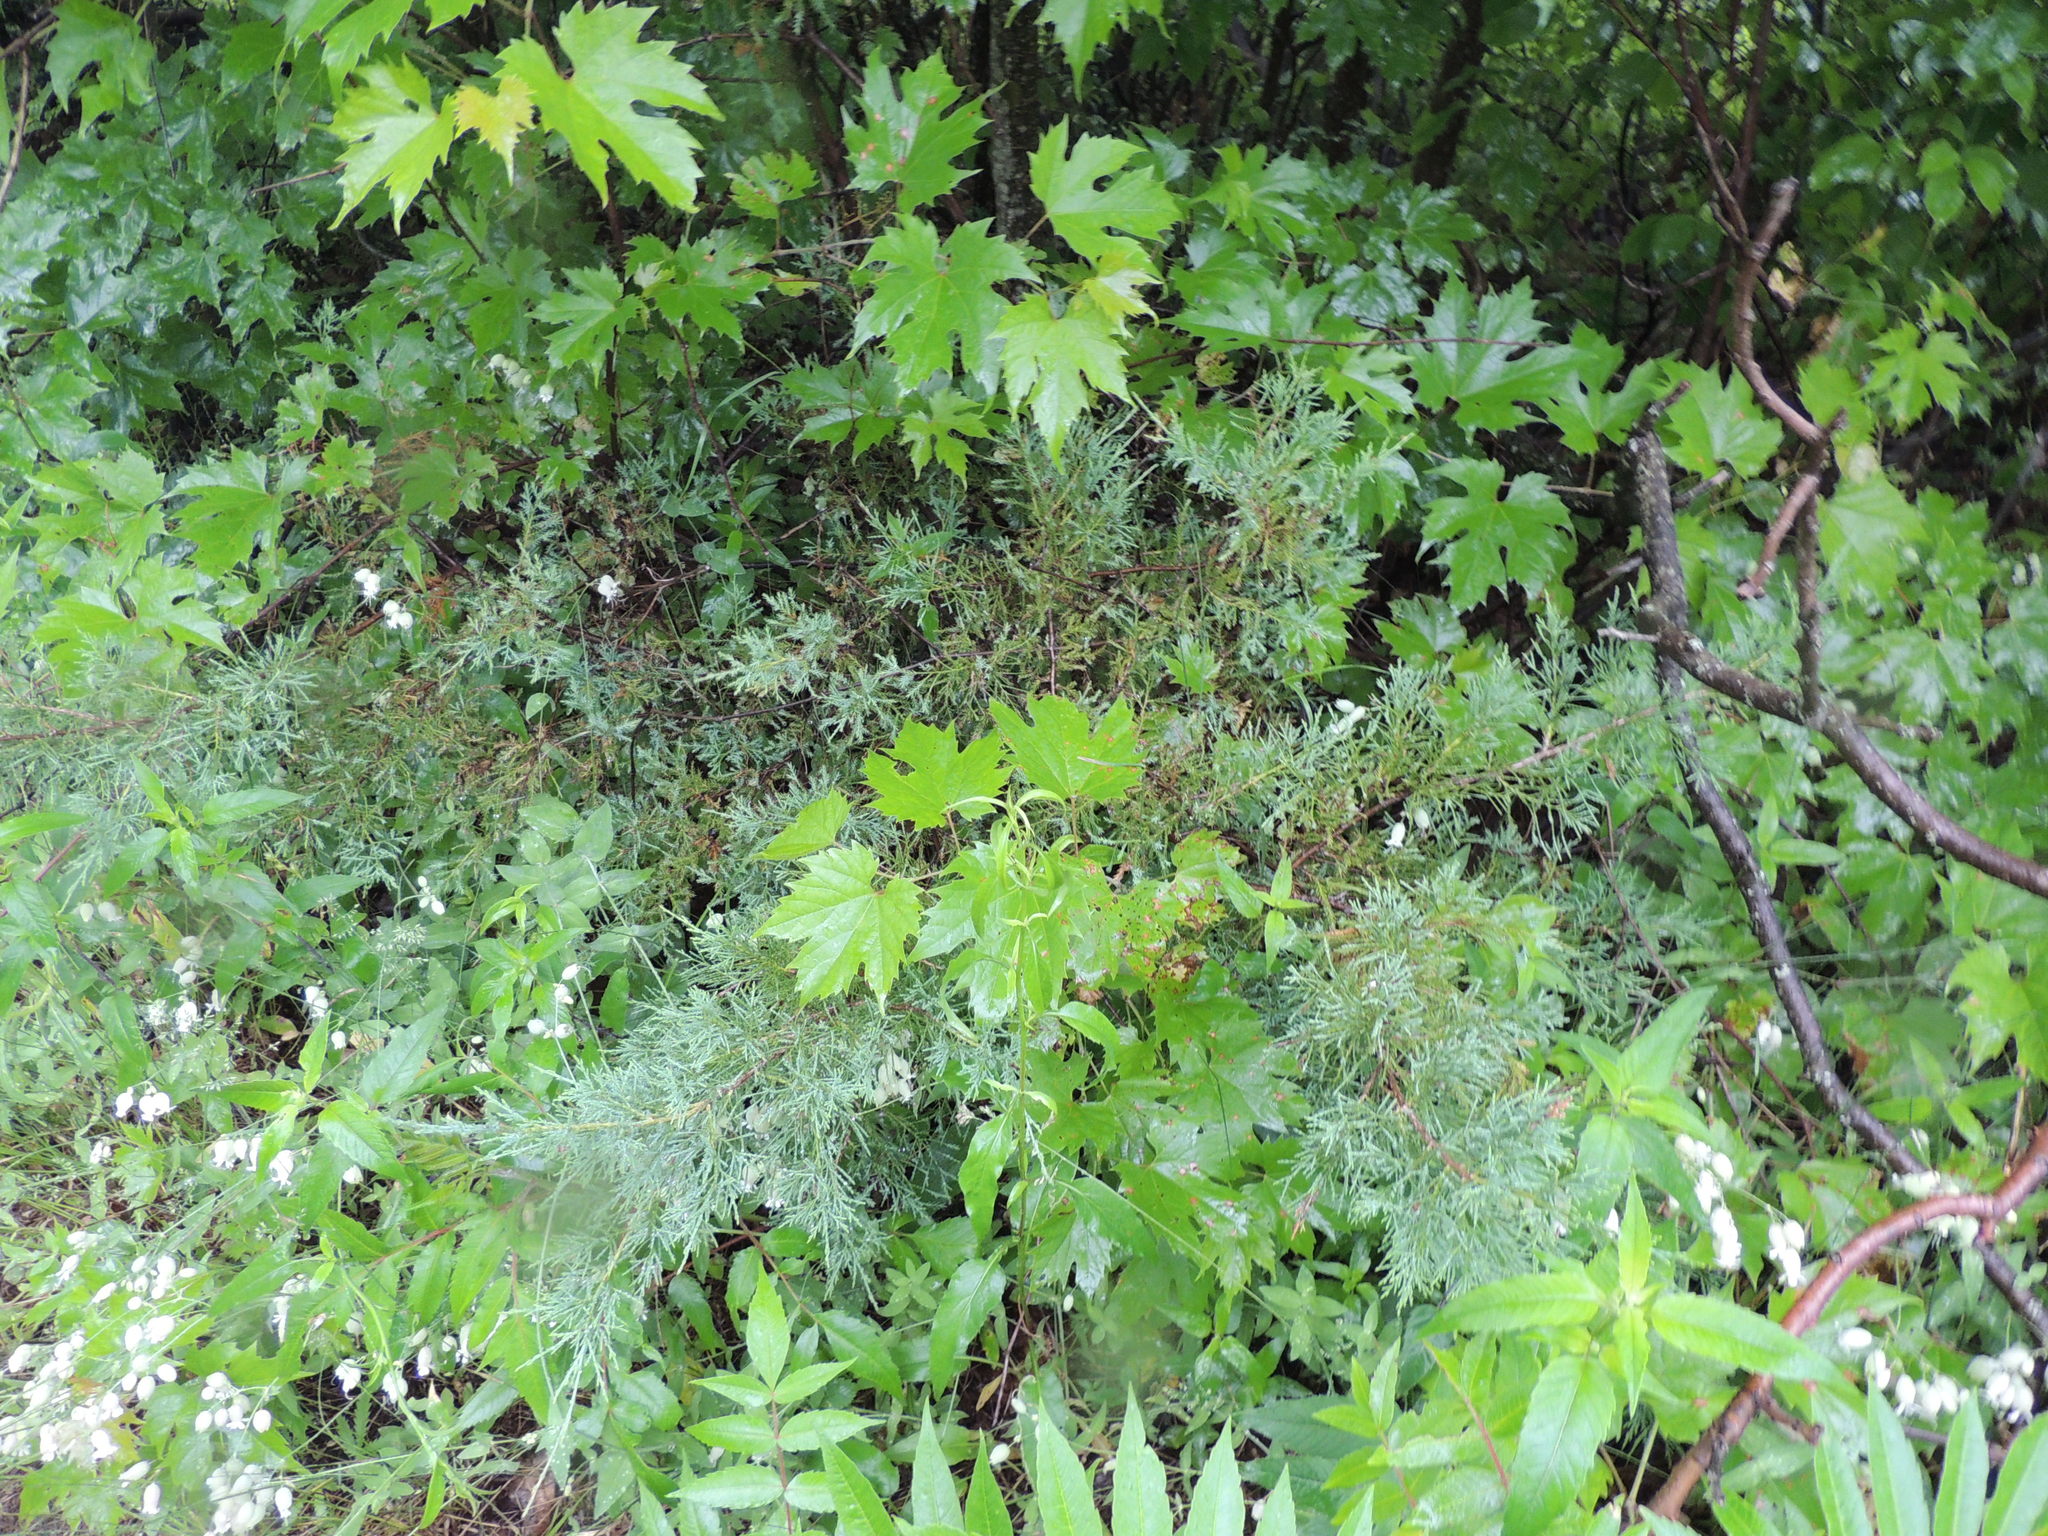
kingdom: Plantae
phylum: Tracheophyta
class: Pinopsida
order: Pinales
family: Cupressaceae
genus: Juniperus
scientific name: Juniperus virginiana
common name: Red juniper
